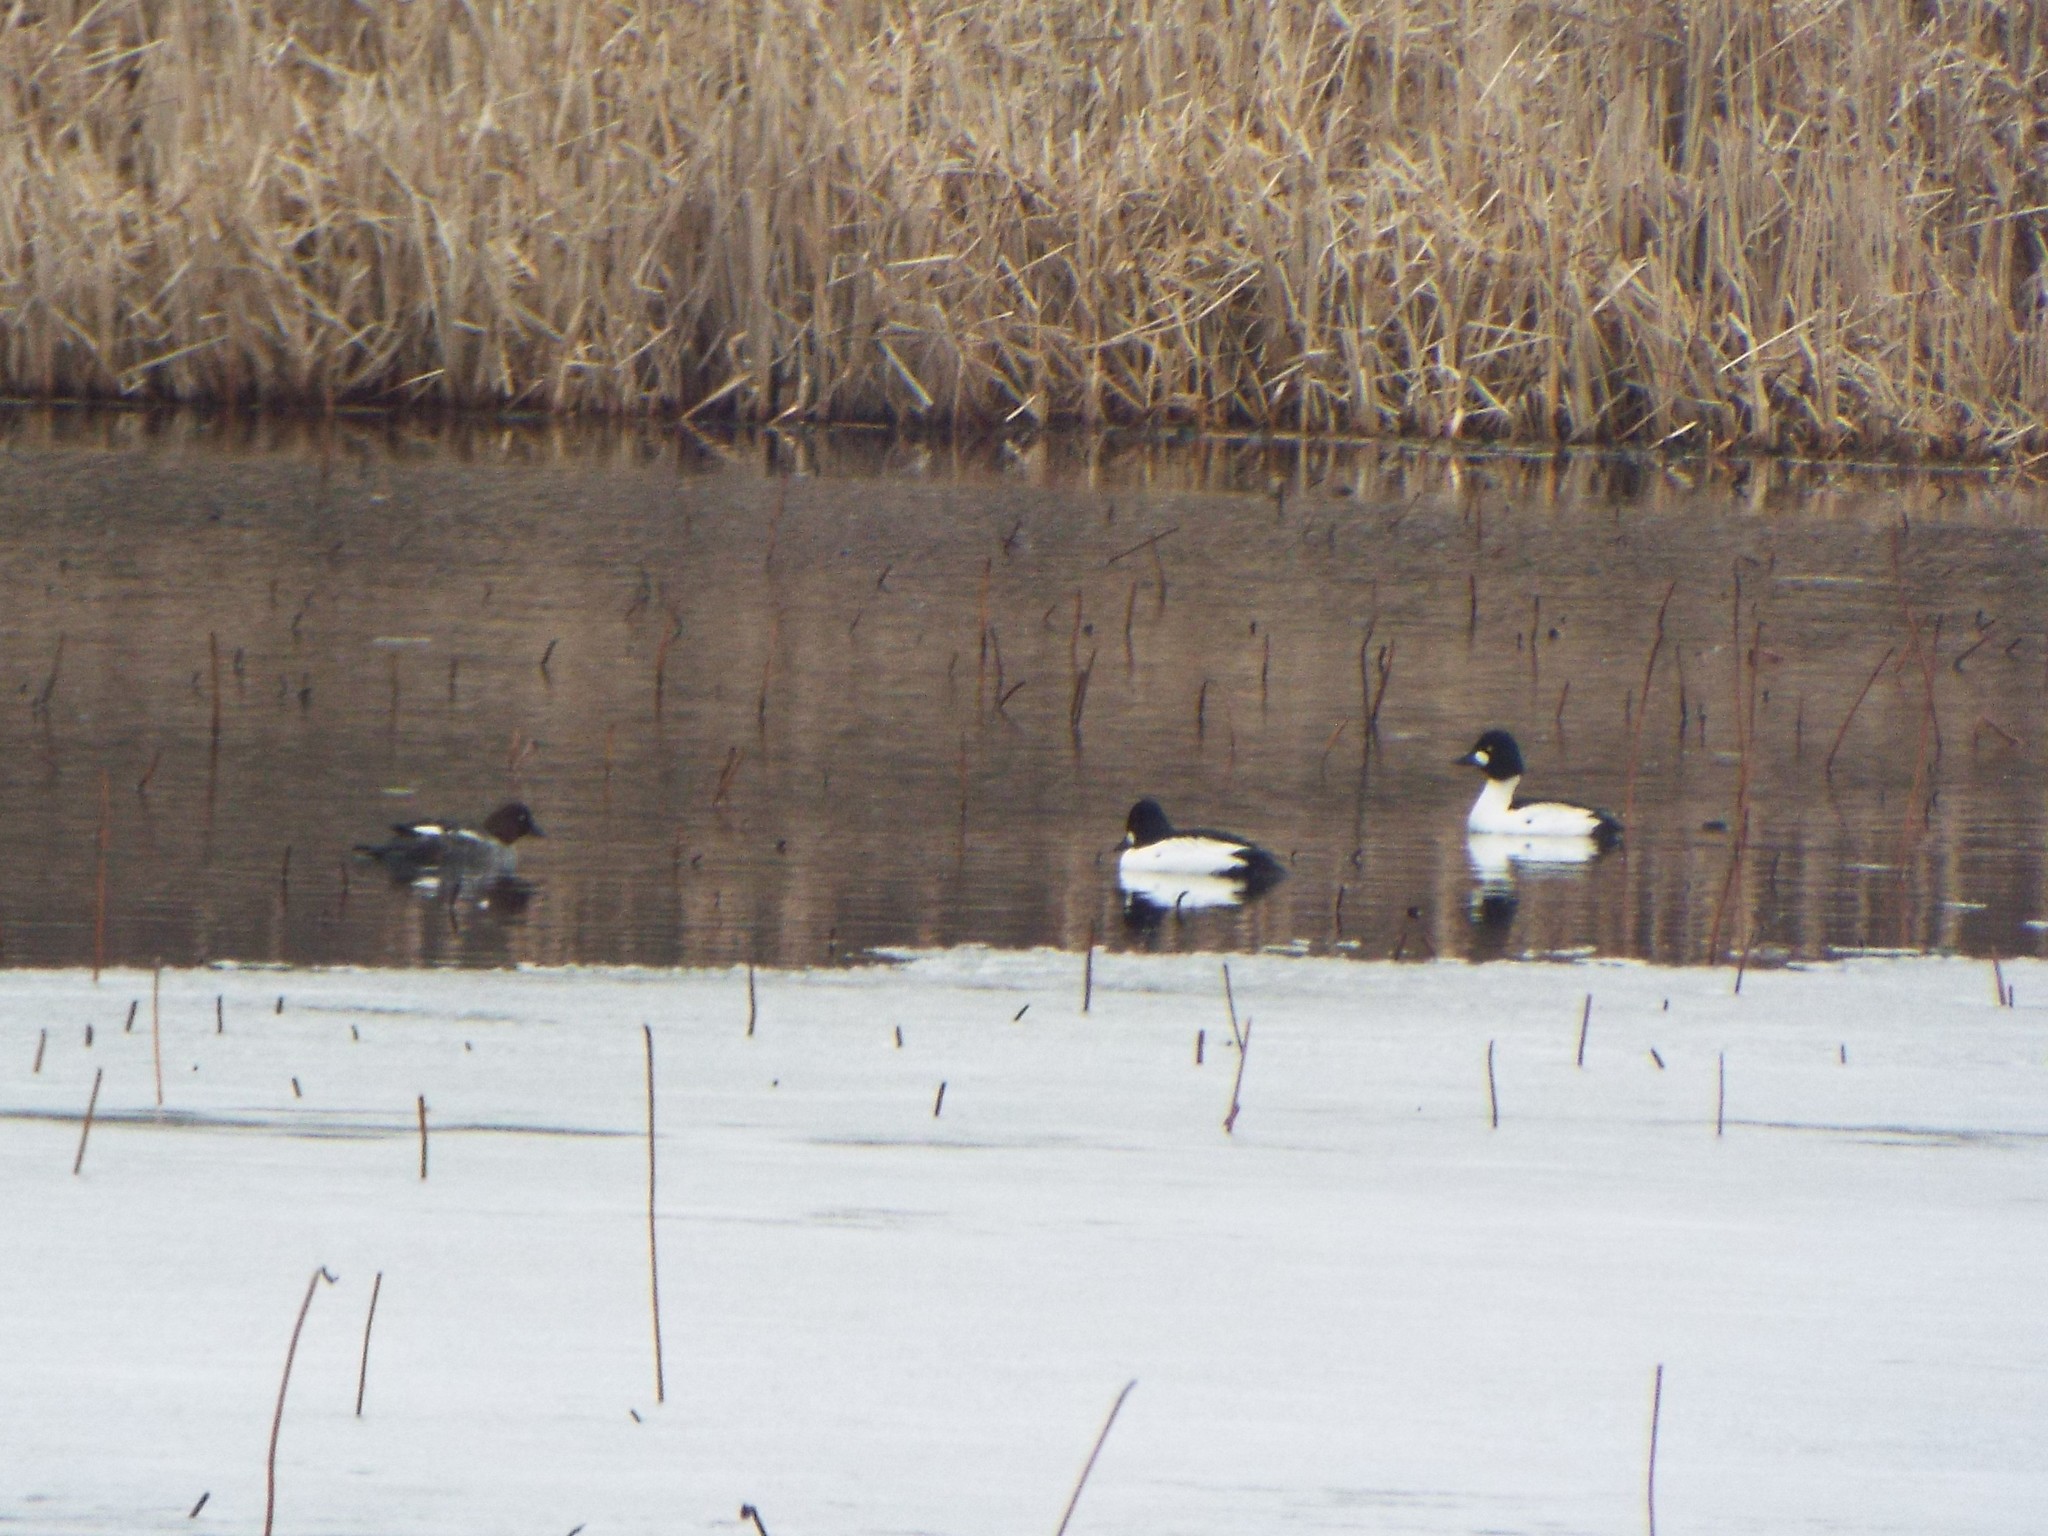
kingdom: Animalia
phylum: Chordata
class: Aves
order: Anseriformes
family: Anatidae
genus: Bucephala
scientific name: Bucephala clangula
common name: Common goldeneye
